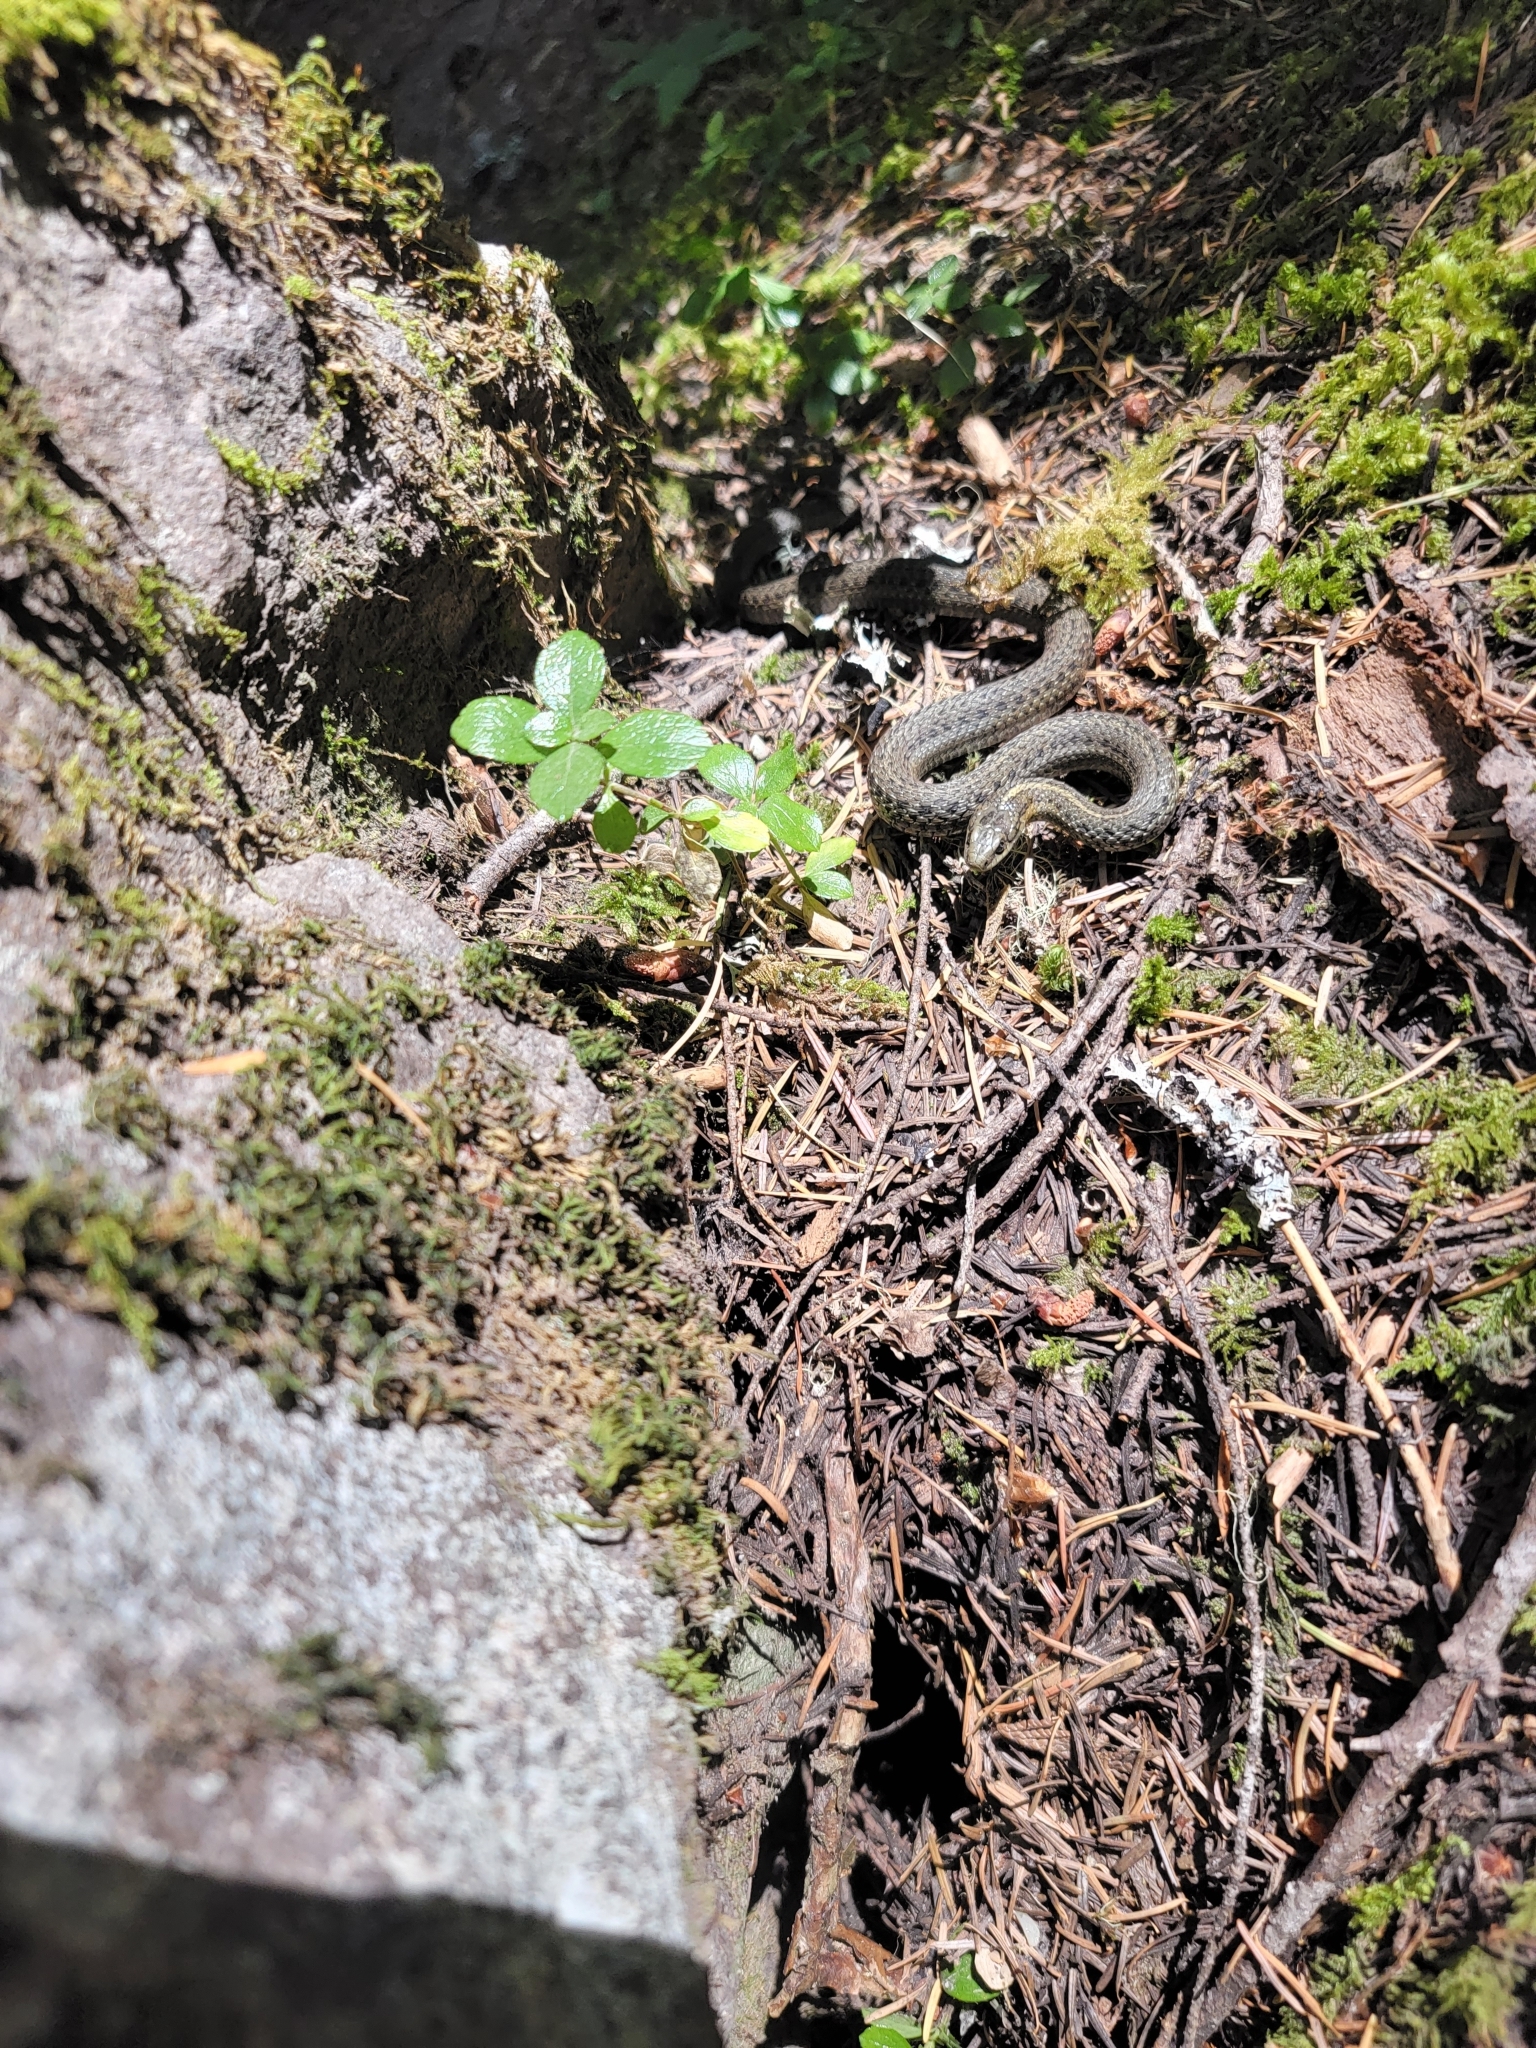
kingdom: Animalia
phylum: Chordata
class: Squamata
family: Colubridae
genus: Thamnophis
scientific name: Thamnophis ordinoides
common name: Northwestern garter snake
